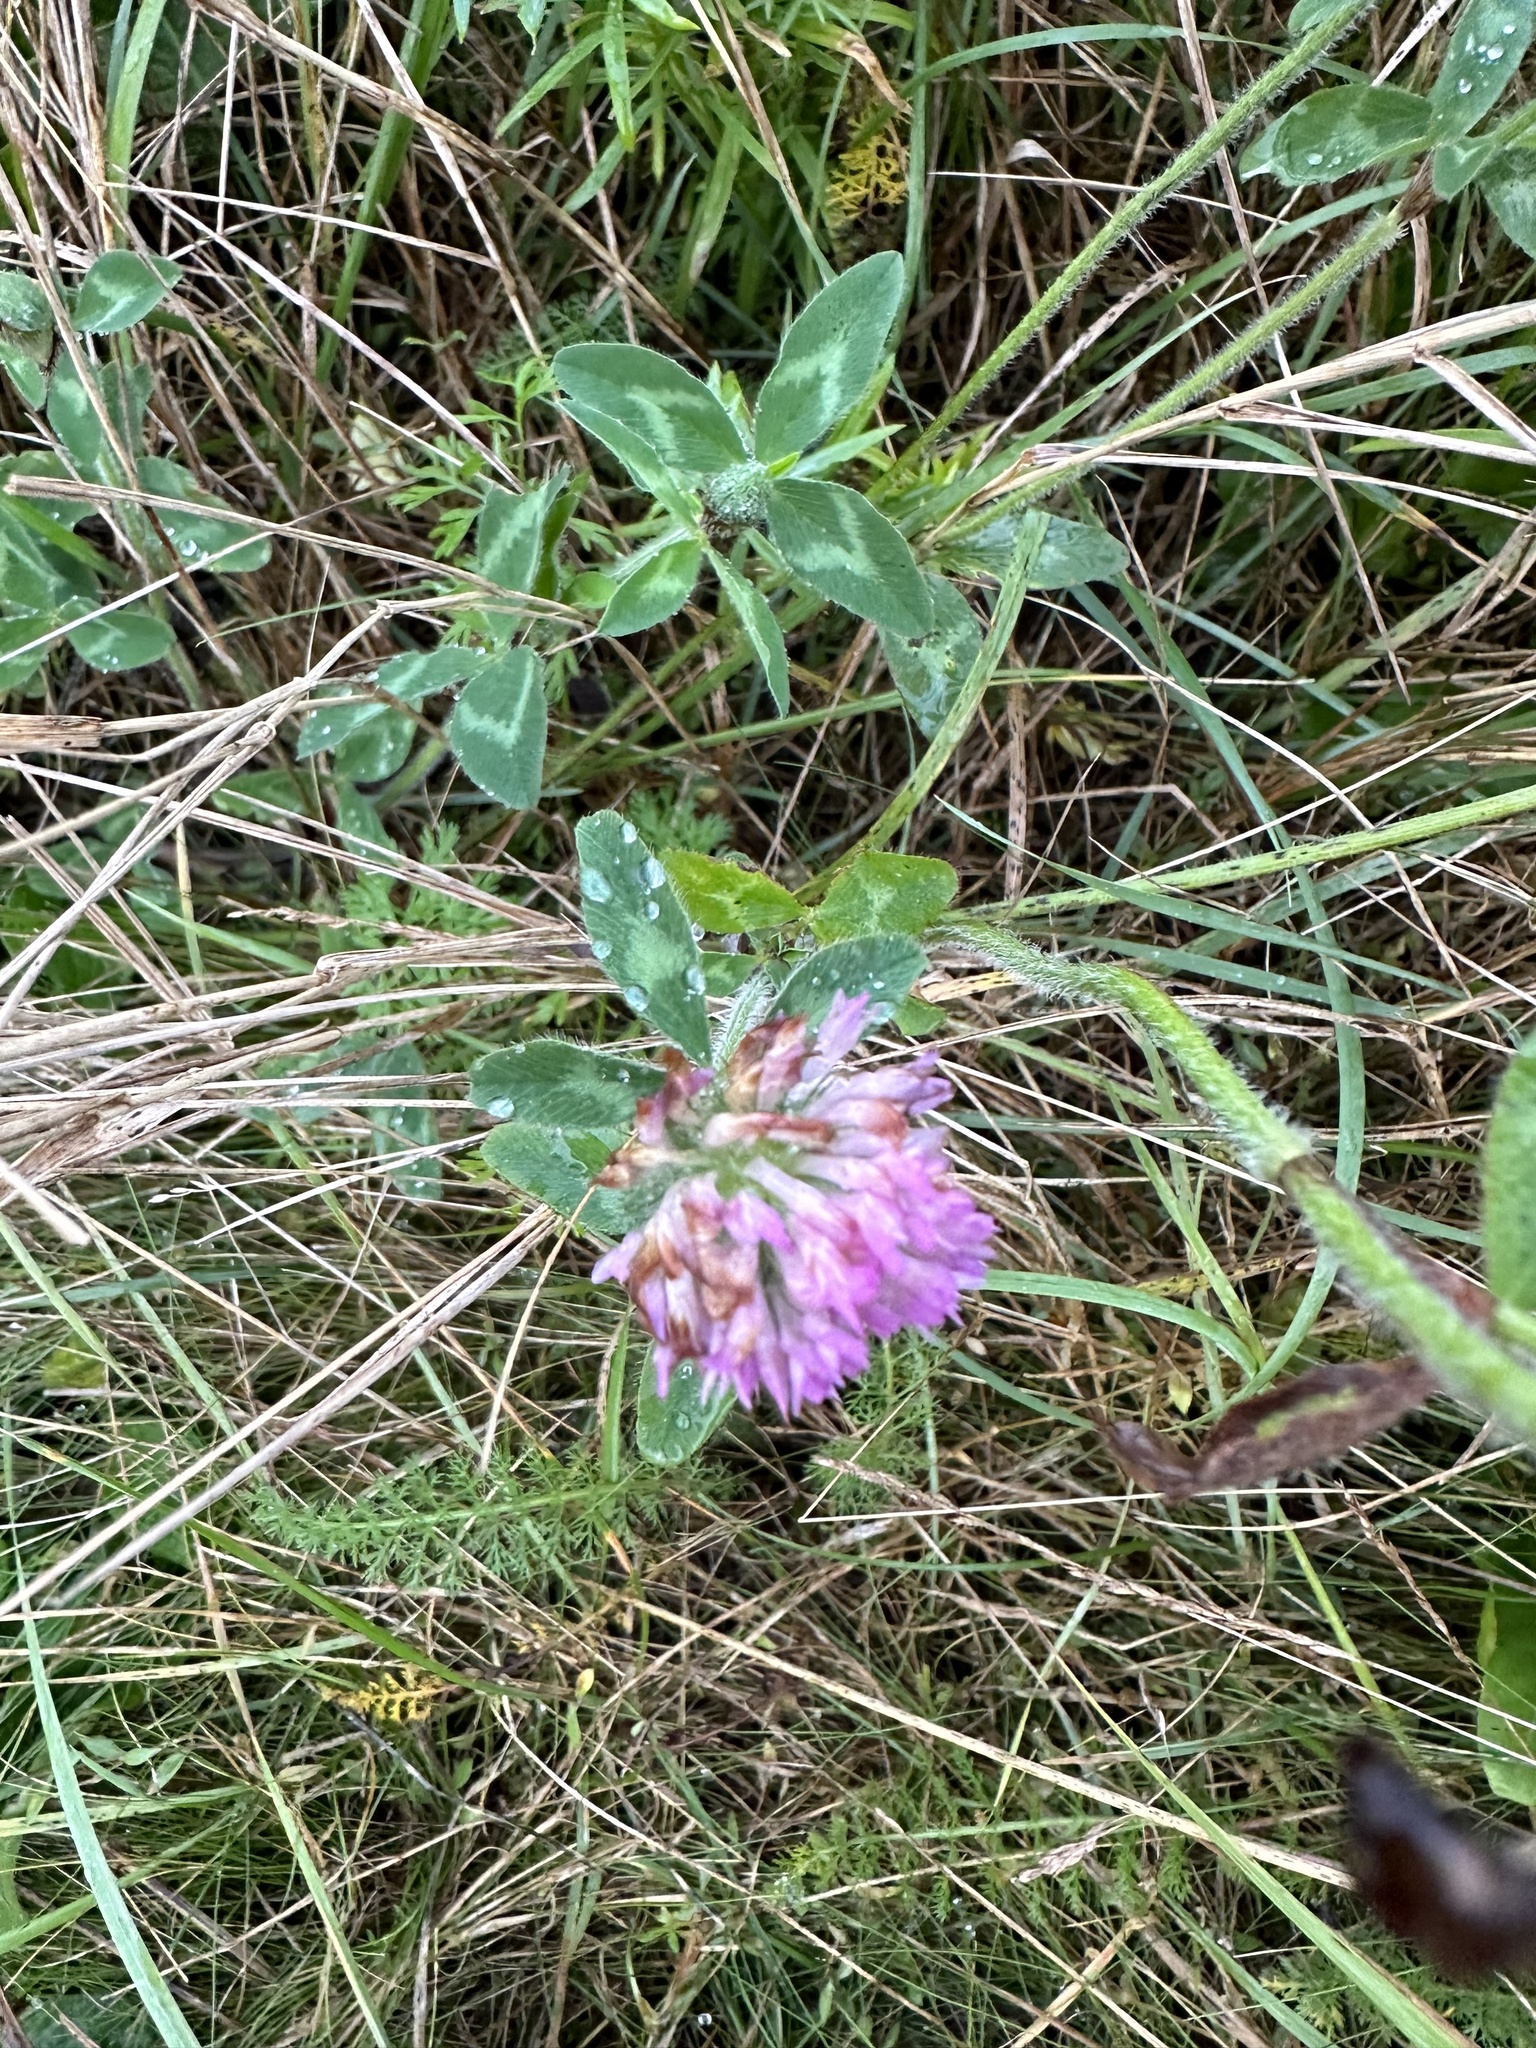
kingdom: Plantae
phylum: Tracheophyta
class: Magnoliopsida
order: Fabales
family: Fabaceae
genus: Trifolium
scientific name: Trifolium pratense
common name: Red clover
